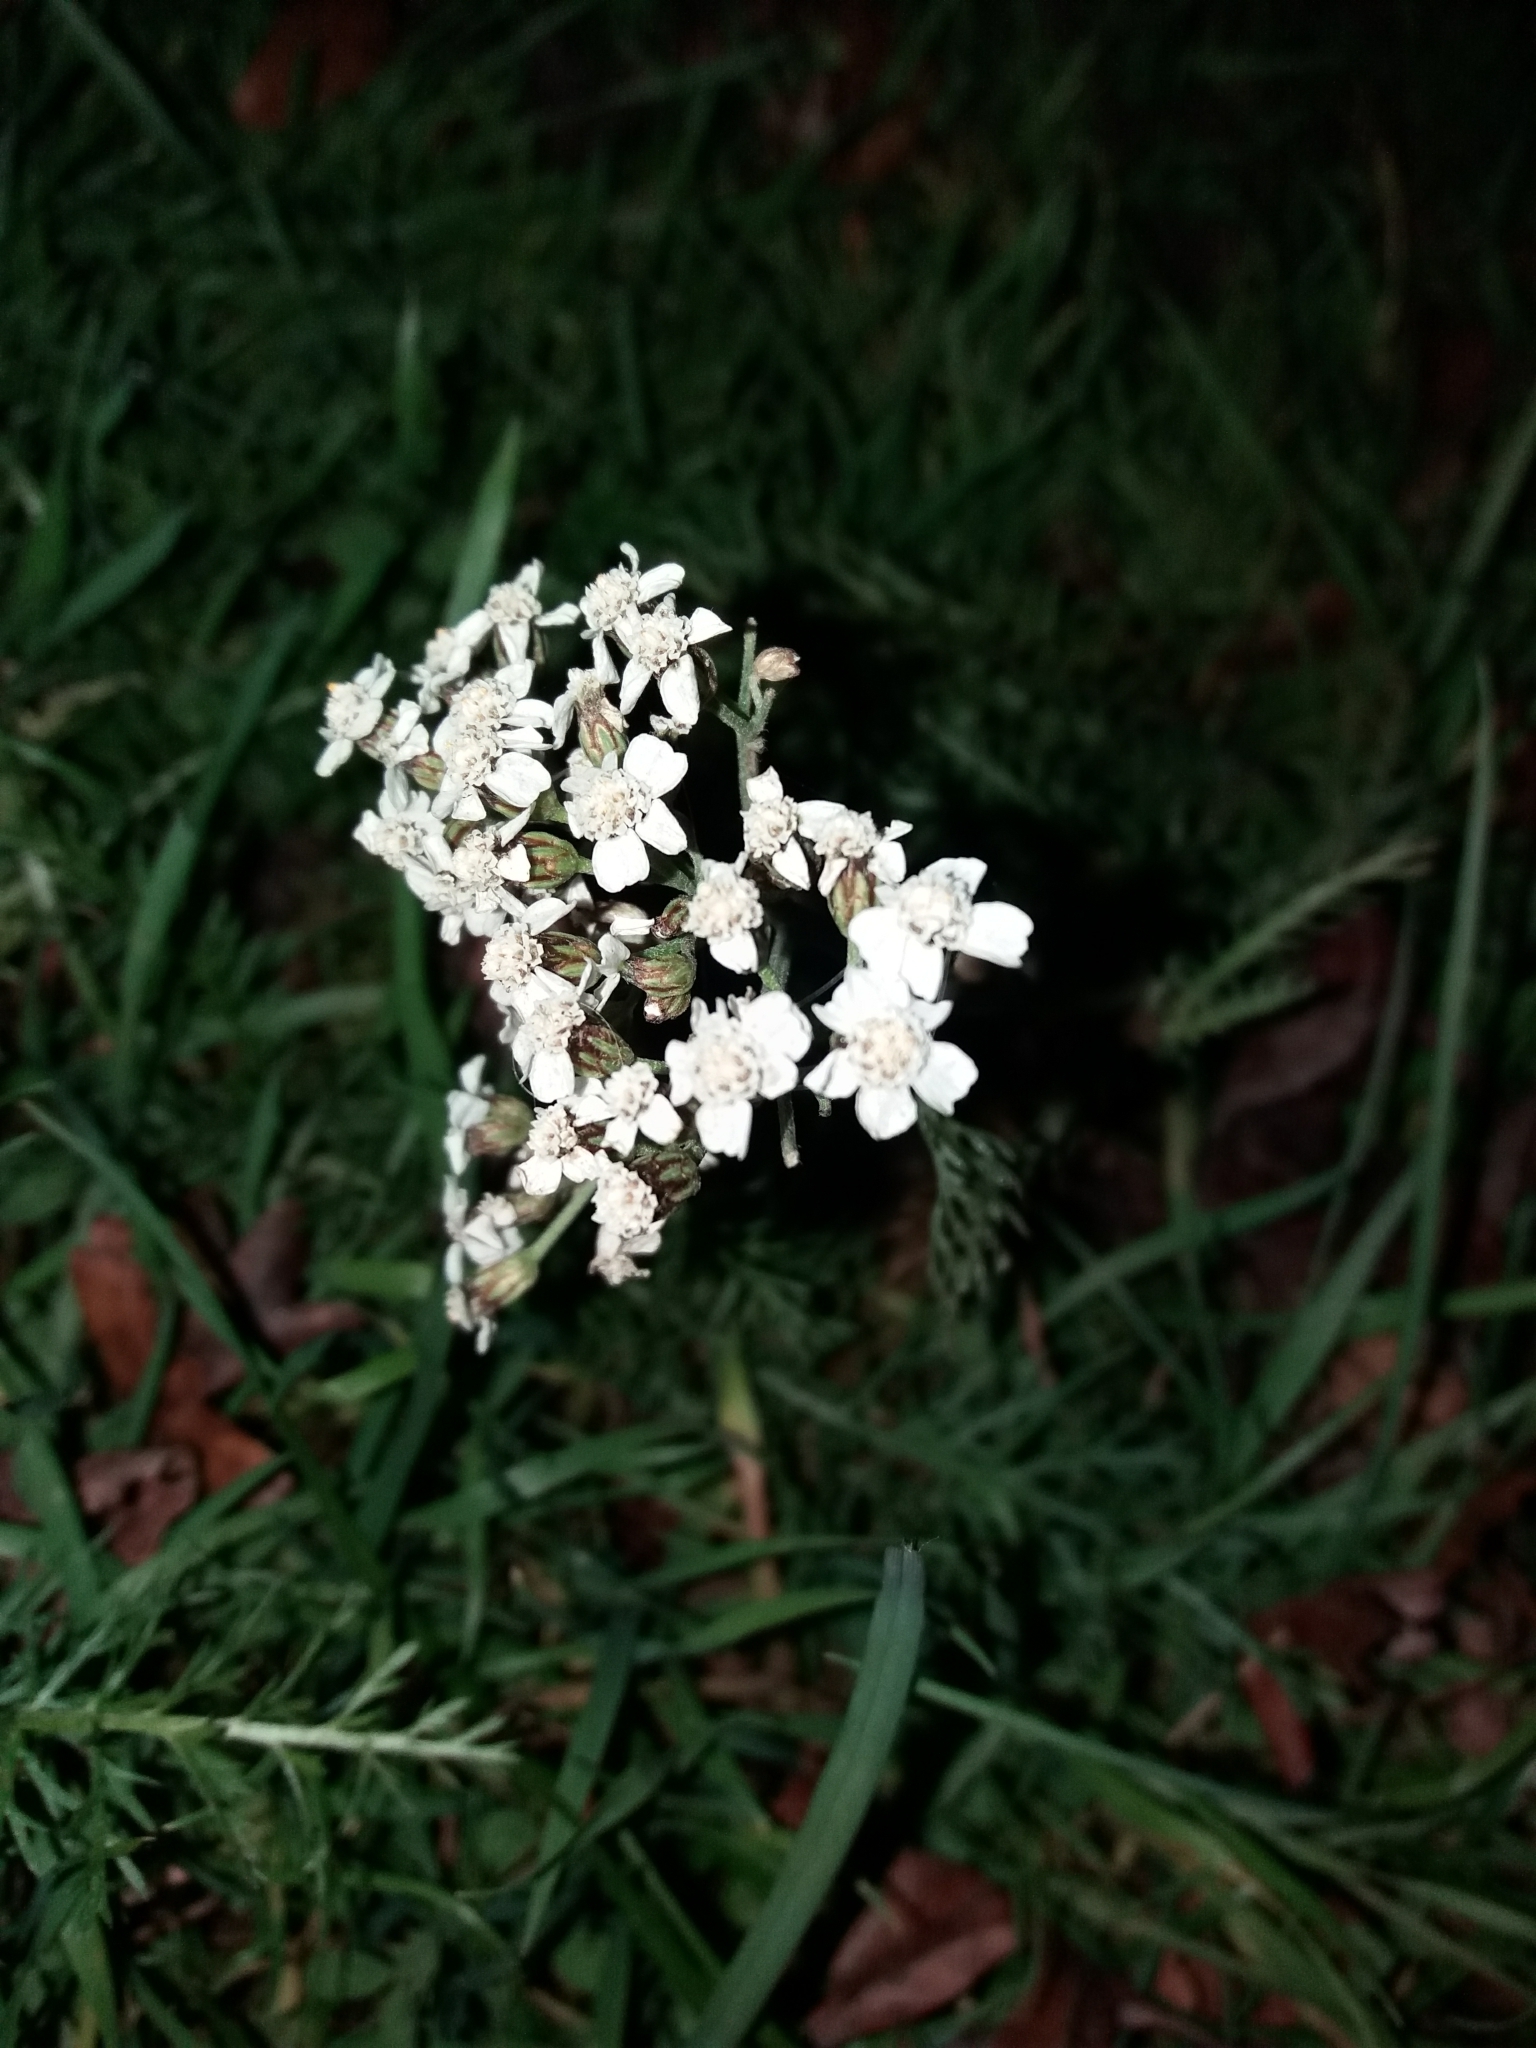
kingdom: Plantae
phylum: Tracheophyta
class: Magnoliopsida
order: Asterales
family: Asteraceae
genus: Achillea
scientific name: Achillea millefolium
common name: Yarrow
